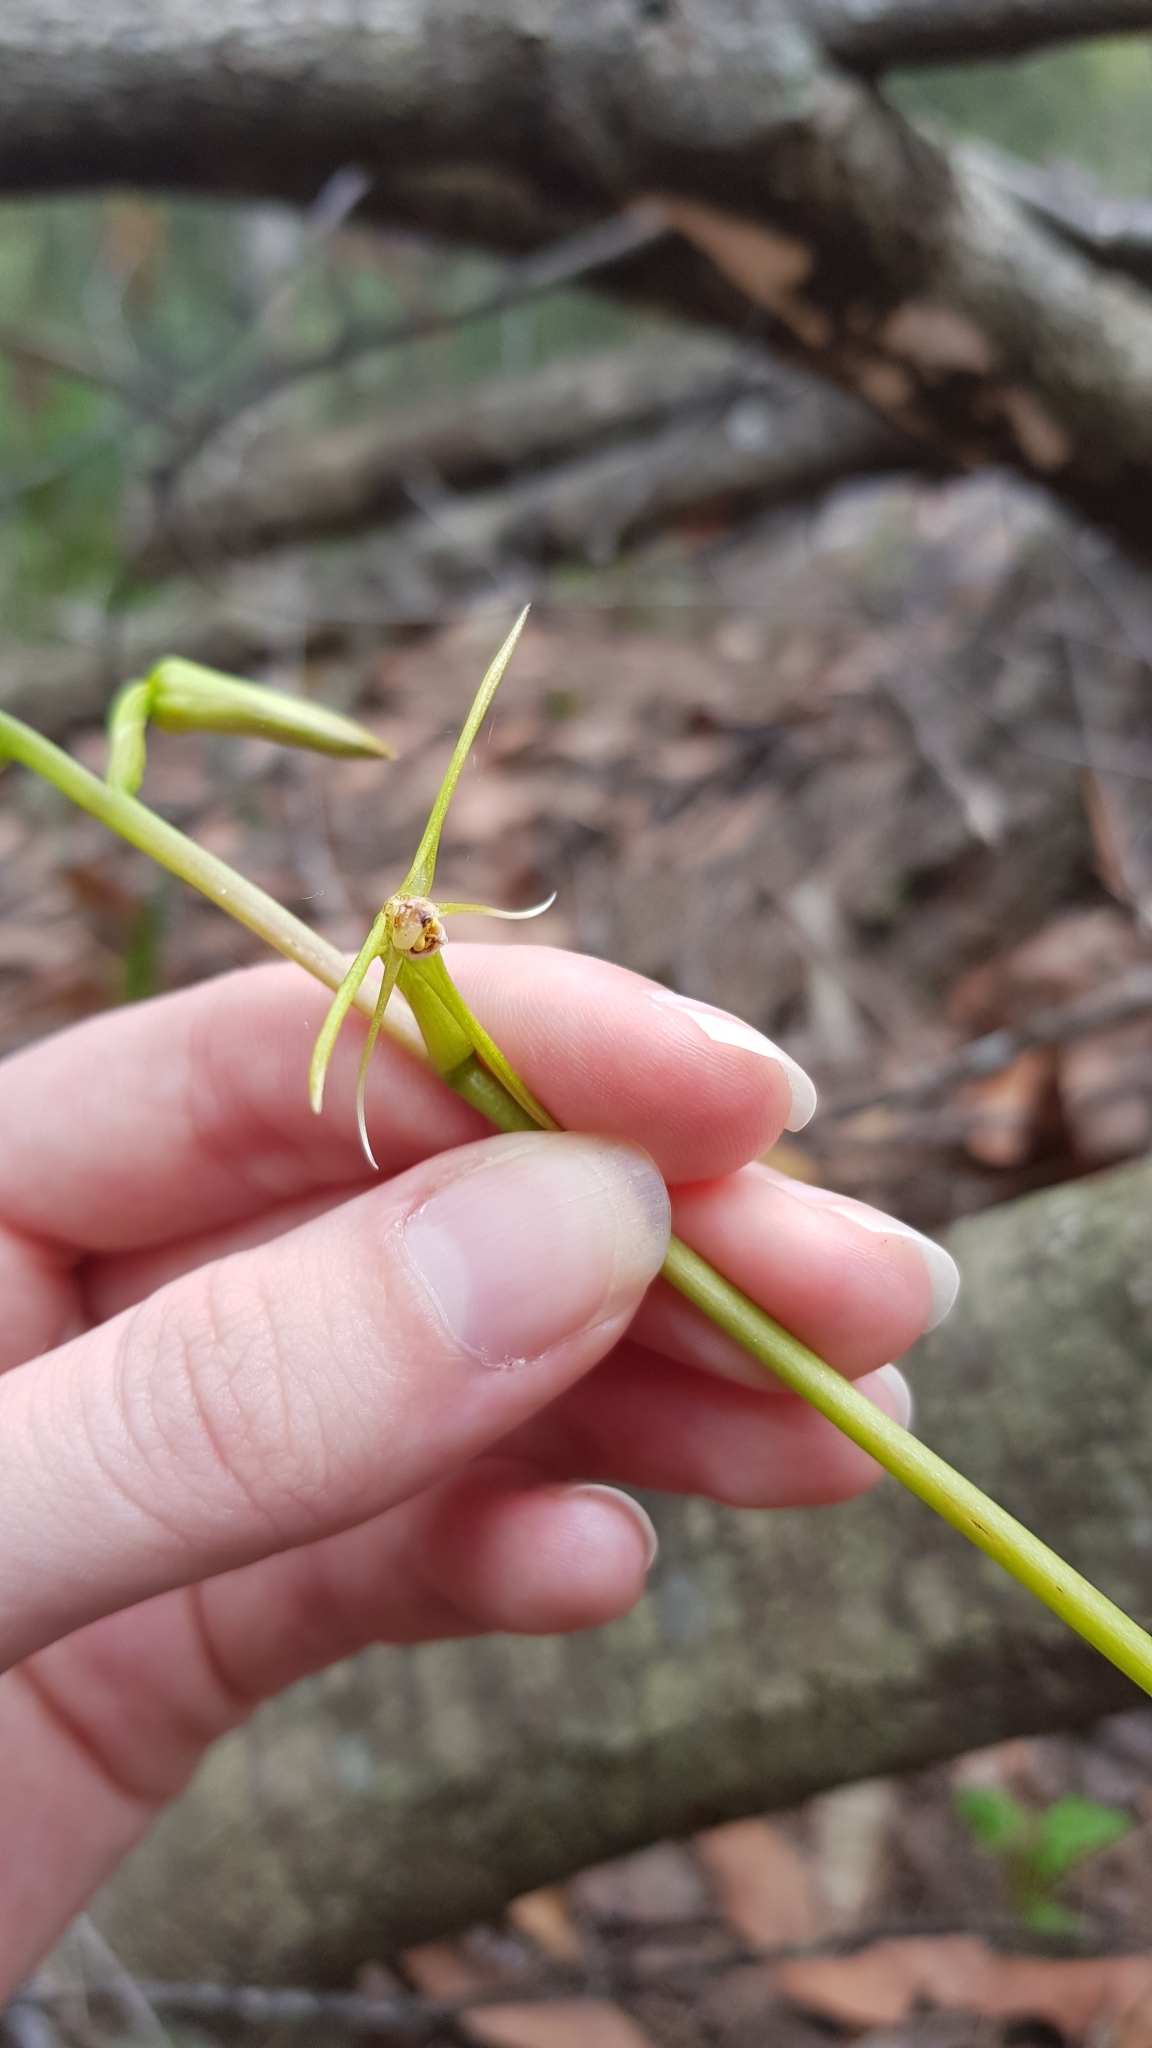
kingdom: Plantae
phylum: Tracheophyta
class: Liliopsida
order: Asparagales
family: Orchidaceae
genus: Cryptostylis
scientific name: Cryptostylis subulata
